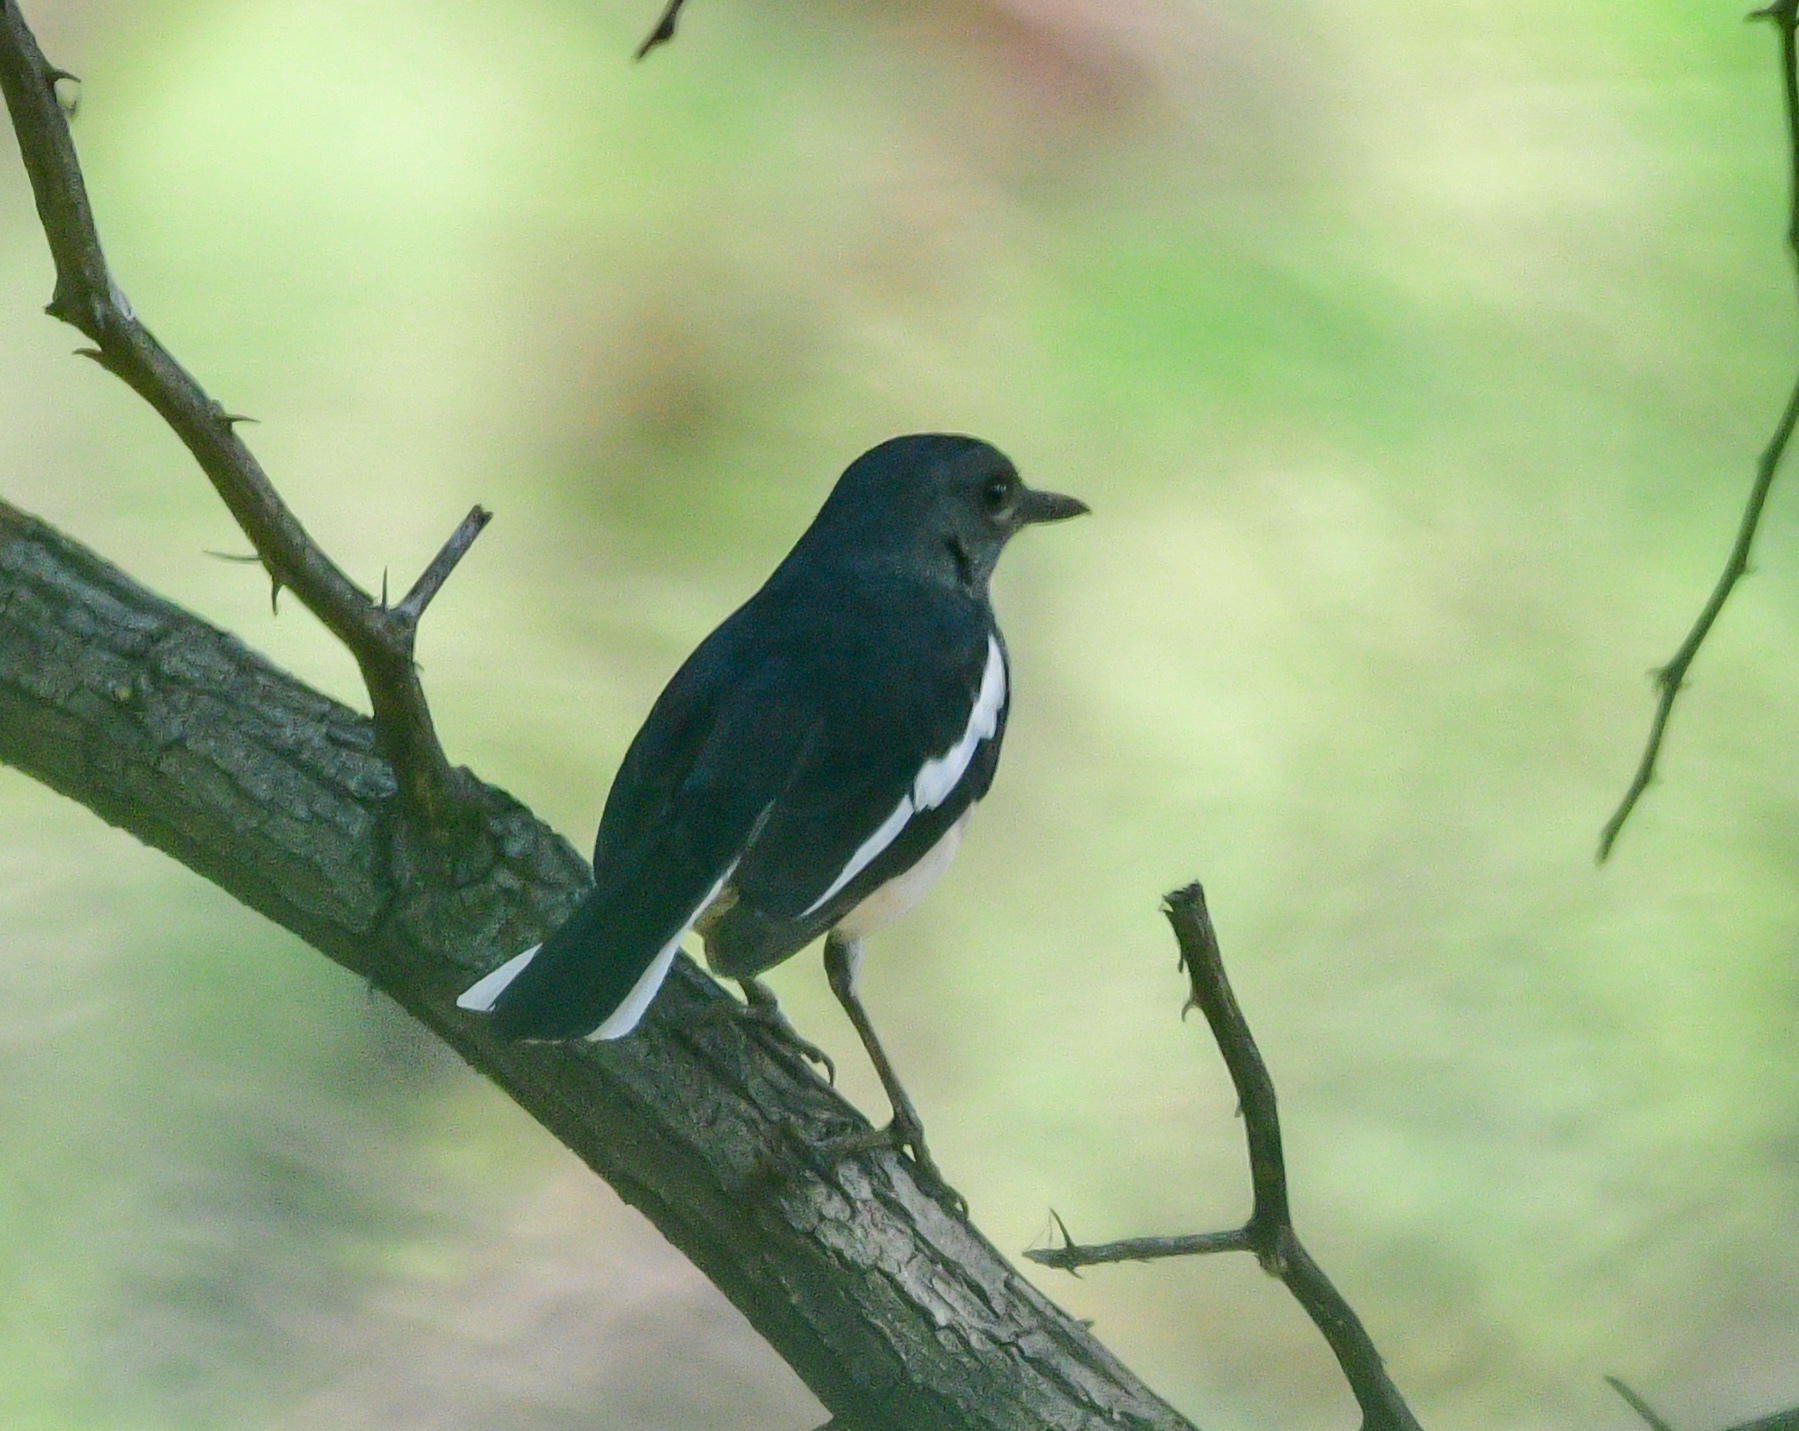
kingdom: Animalia
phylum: Chordata
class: Aves
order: Passeriformes
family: Muscicapidae
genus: Copsychus
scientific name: Copsychus saularis
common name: Oriental magpie-robin
